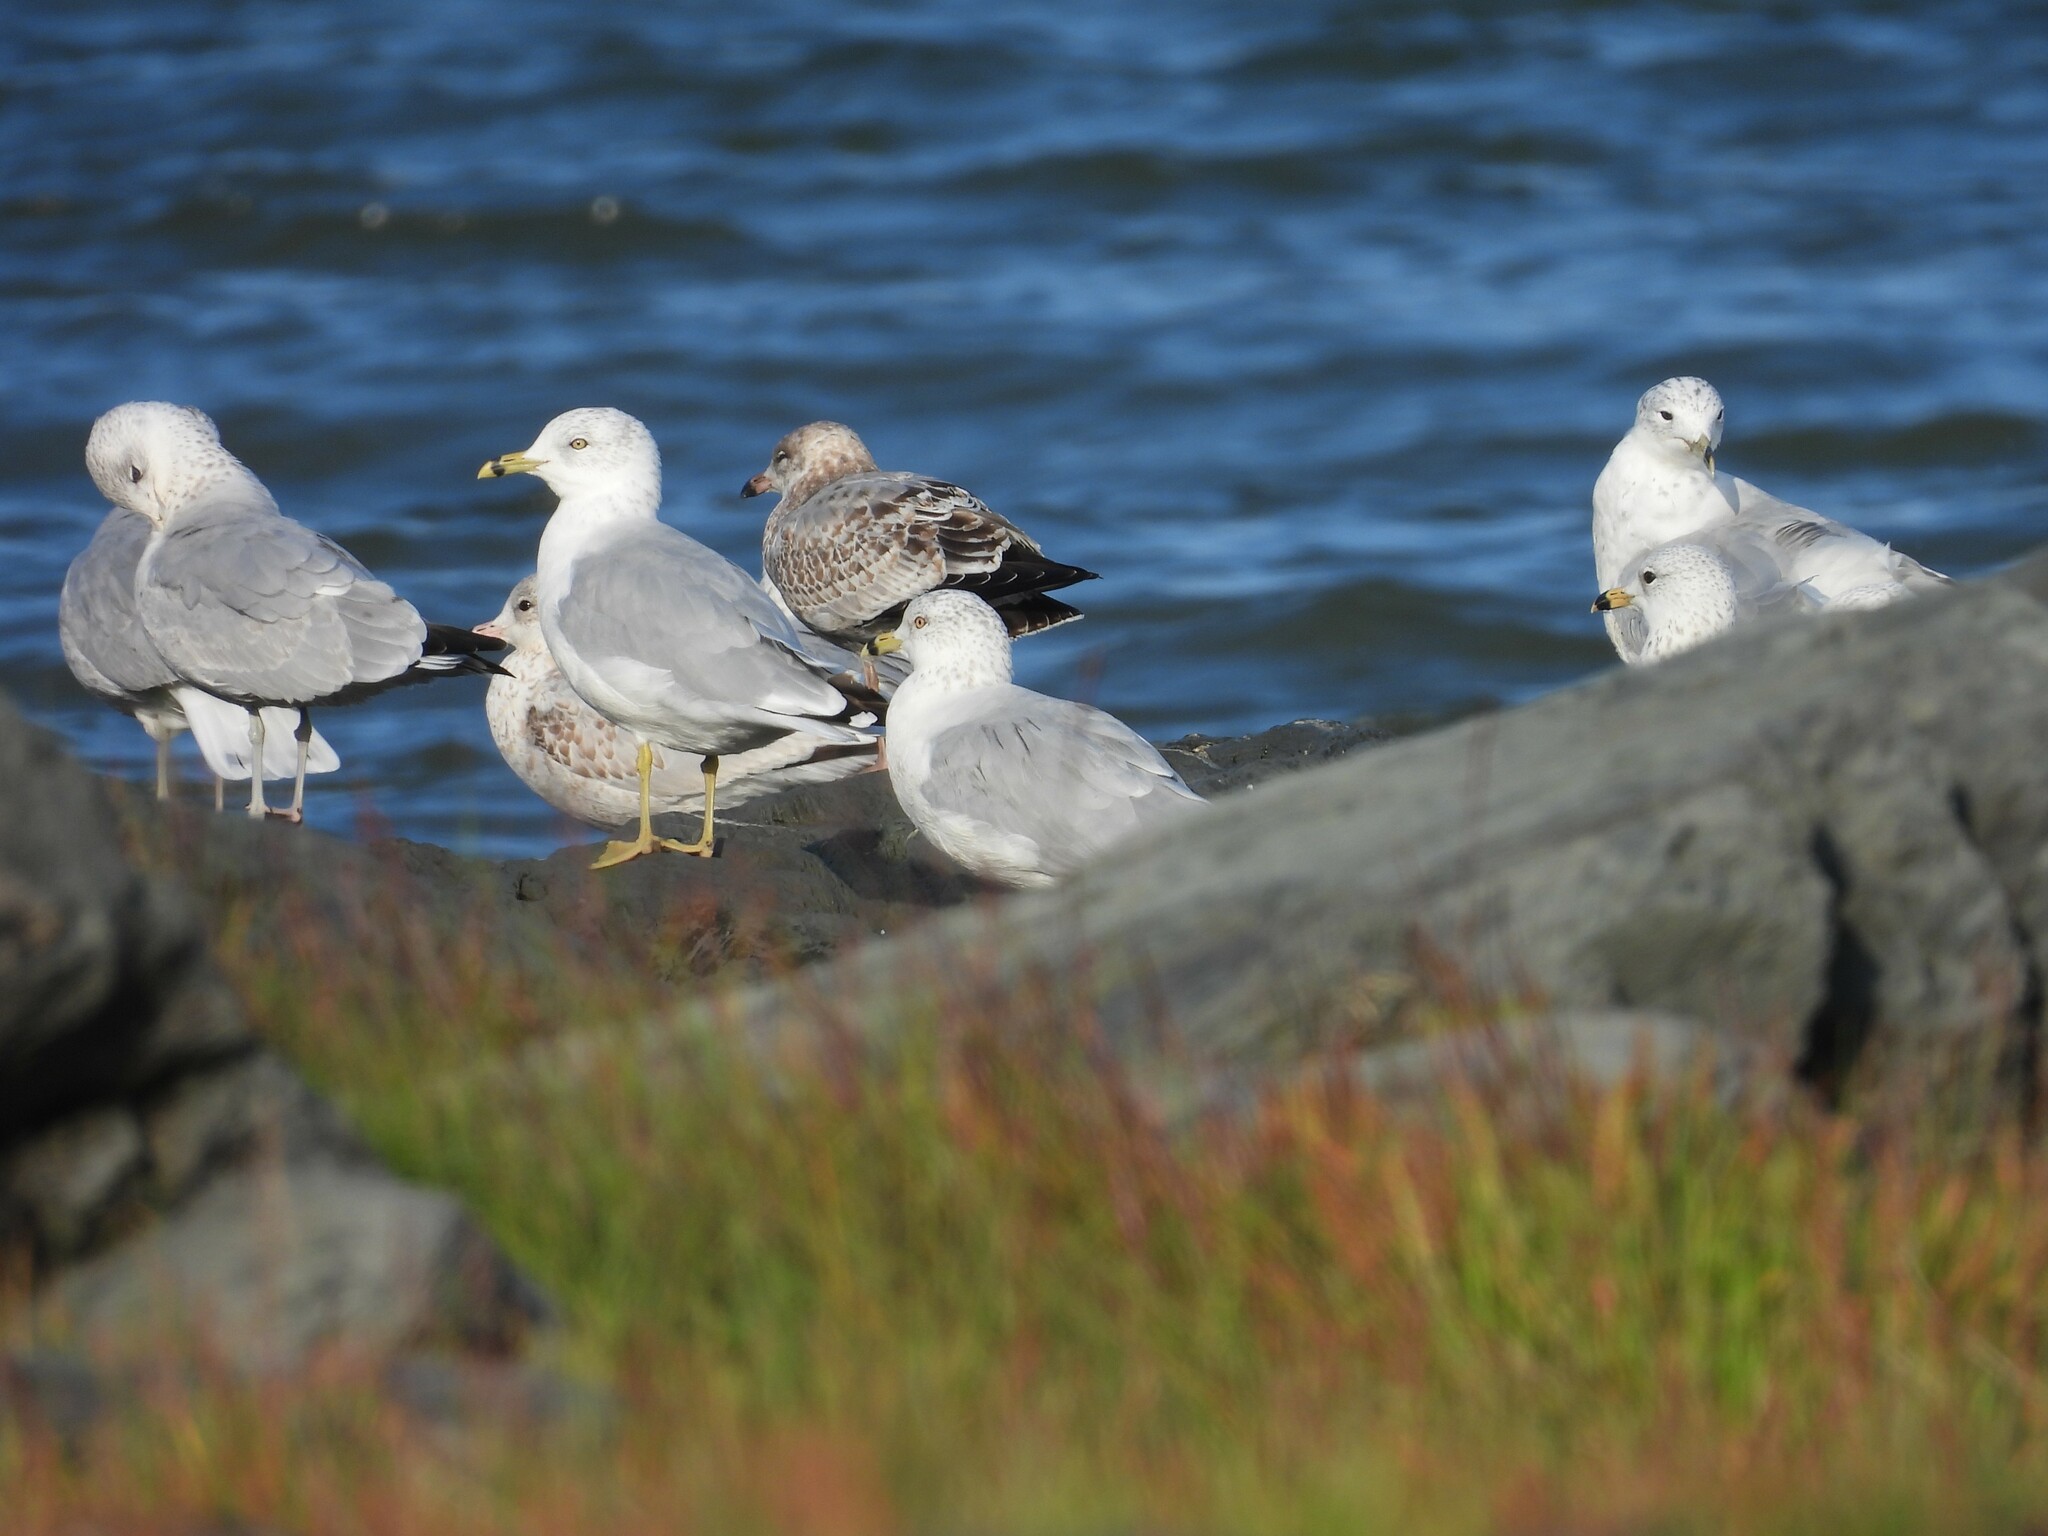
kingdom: Animalia
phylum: Chordata
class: Aves
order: Charadriiformes
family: Laridae
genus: Larus
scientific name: Larus delawarensis
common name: Ring-billed gull
